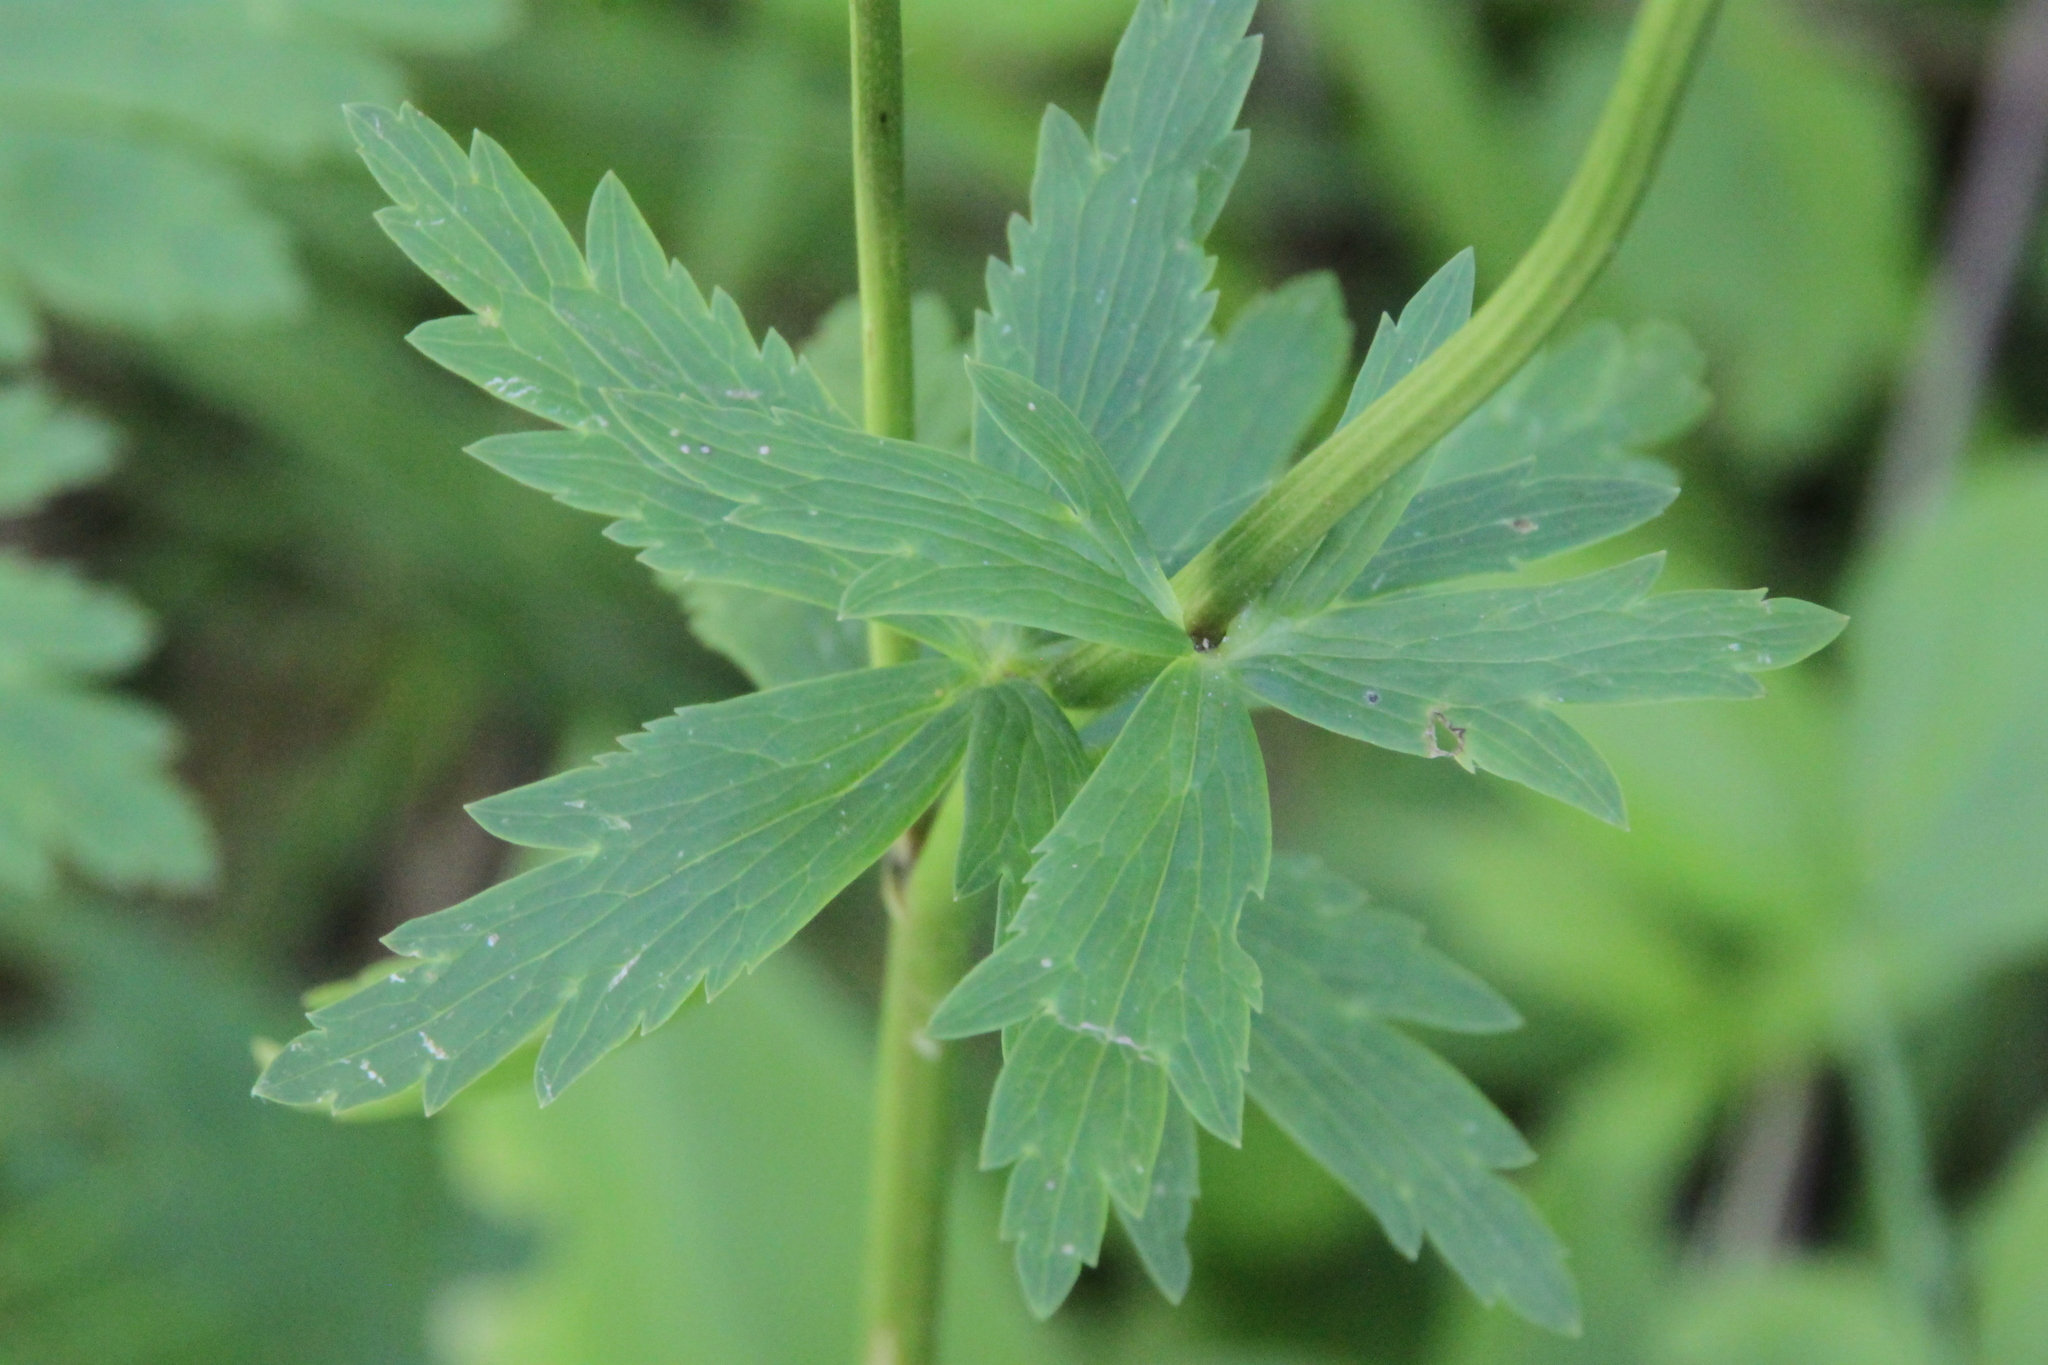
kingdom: Plantae
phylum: Tracheophyta
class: Magnoliopsida
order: Ranunculales
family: Ranunculaceae
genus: Trollius
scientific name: Trollius europaeus
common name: European globeflower
